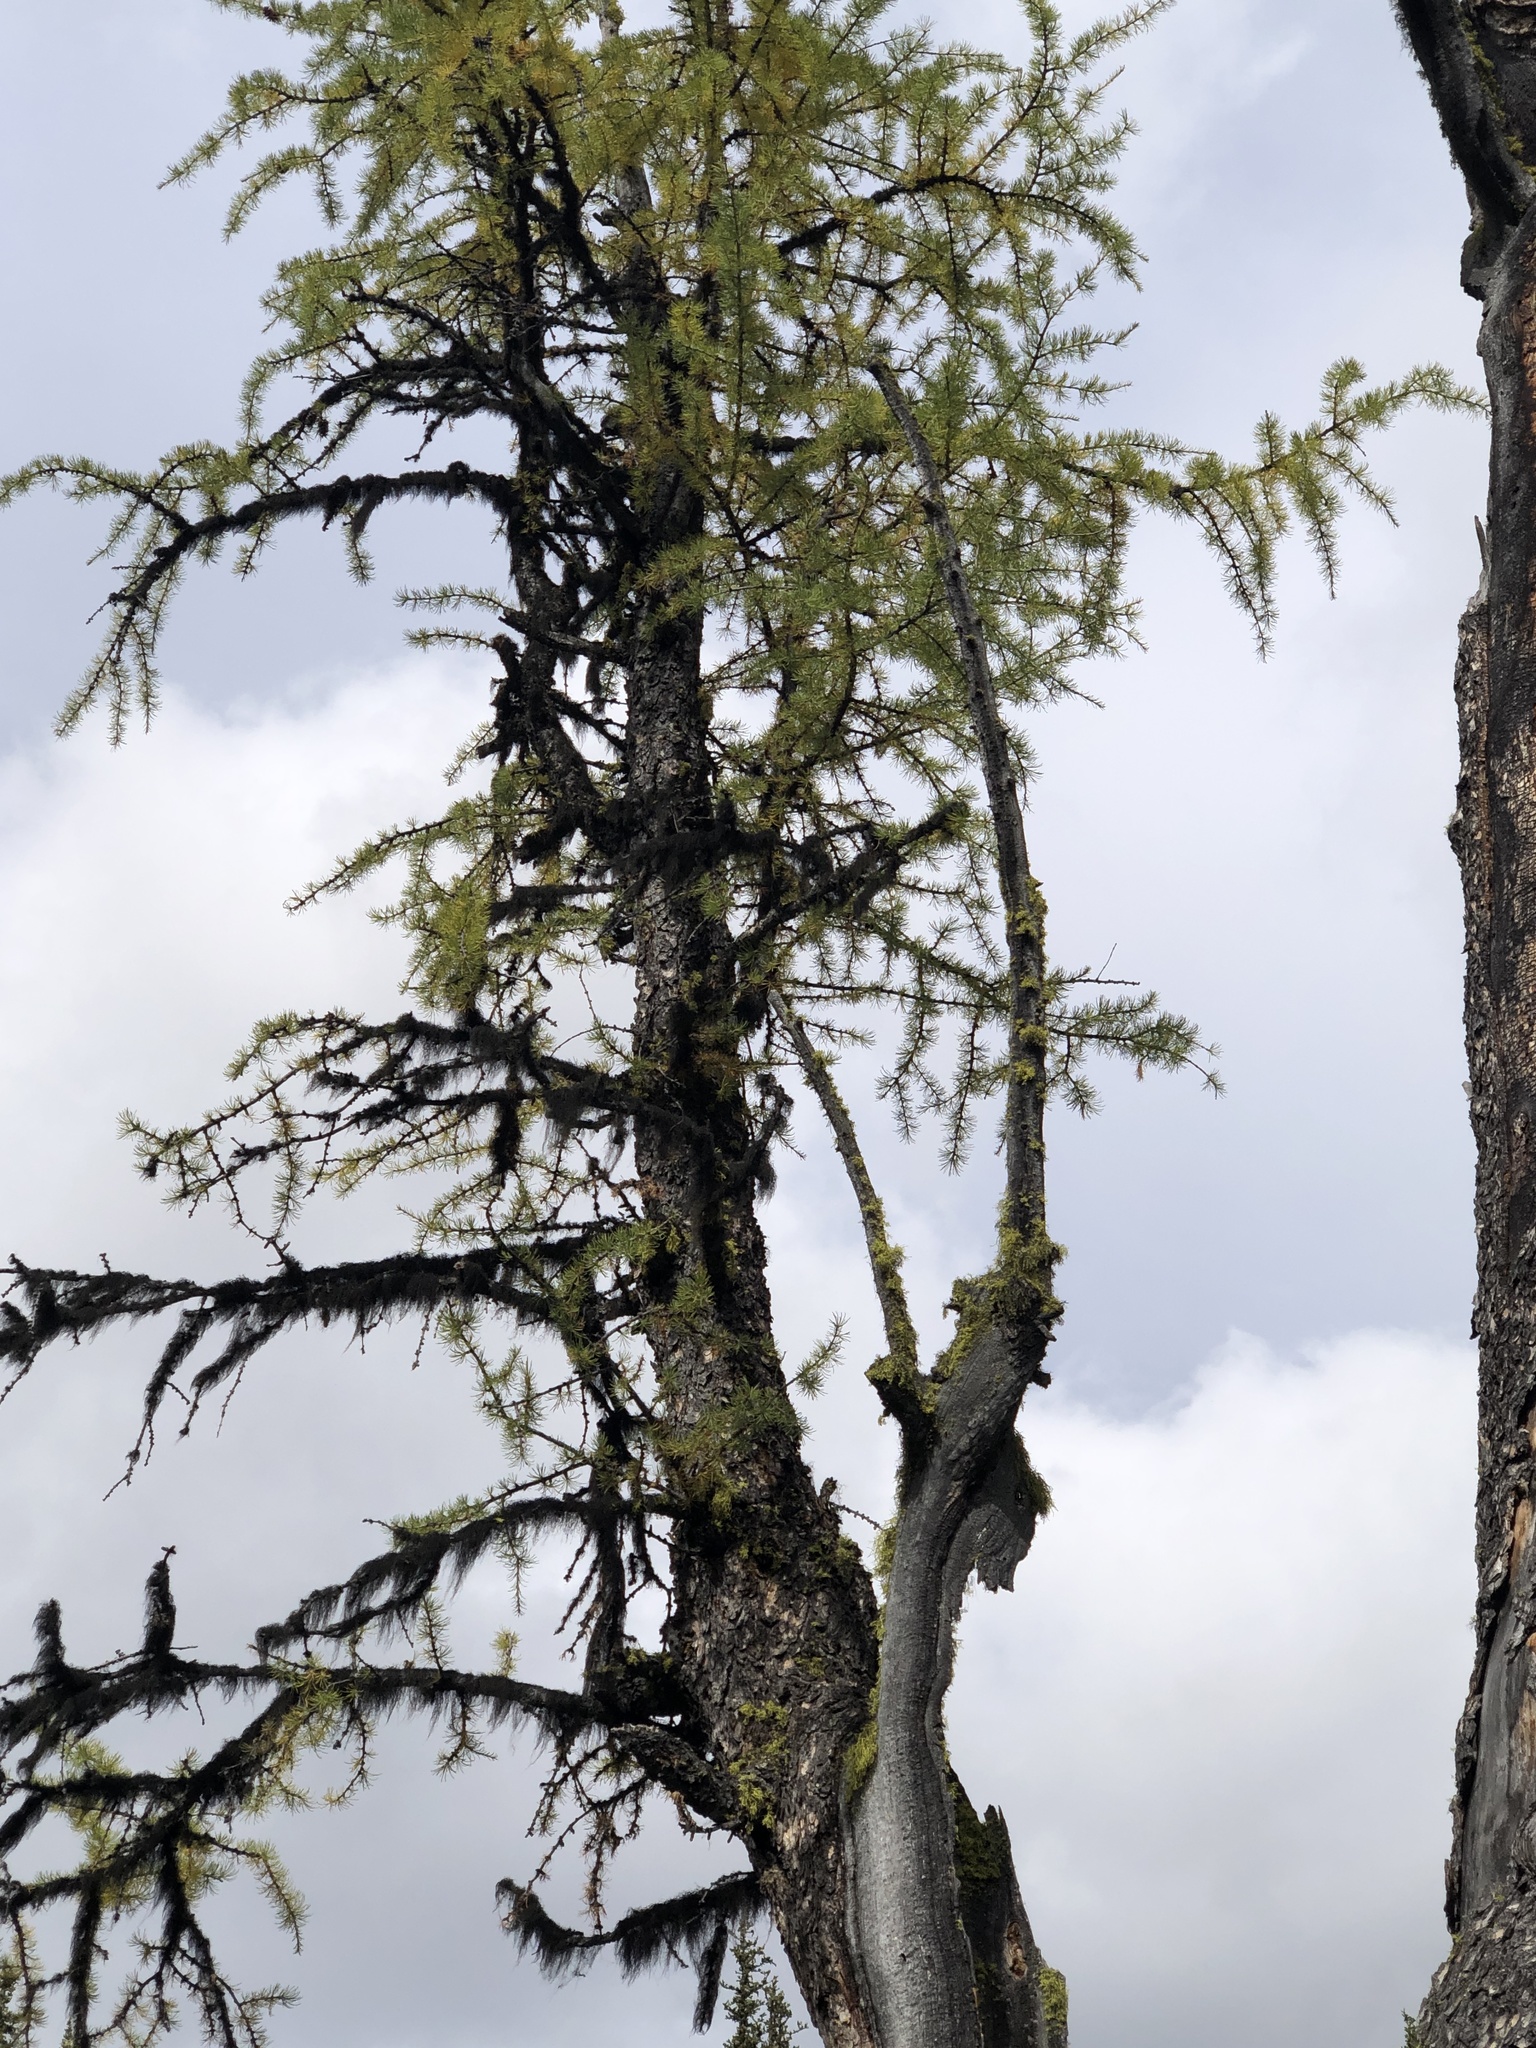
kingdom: Plantae
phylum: Tracheophyta
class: Pinopsida
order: Pinales
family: Pinaceae
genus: Larix
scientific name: Larix lyallii
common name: Alpine larch
